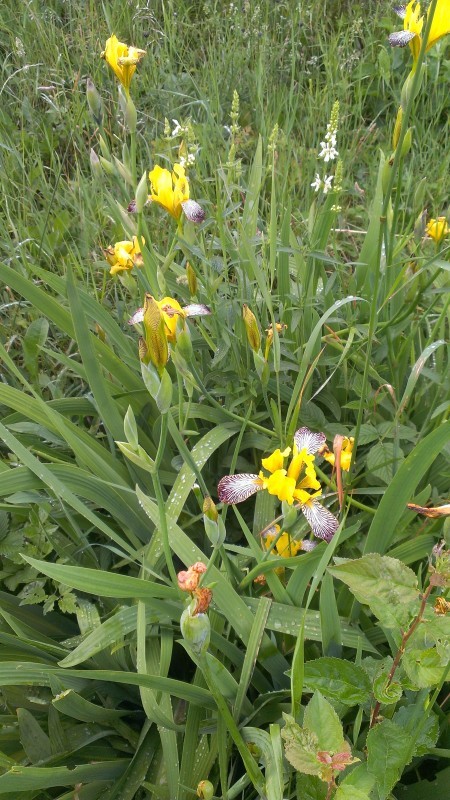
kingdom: Plantae
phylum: Tracheophyta
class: Liliopsida
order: Asparagales
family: Iridaceae
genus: Iris
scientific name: Iris variegata
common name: Hungarian iris
